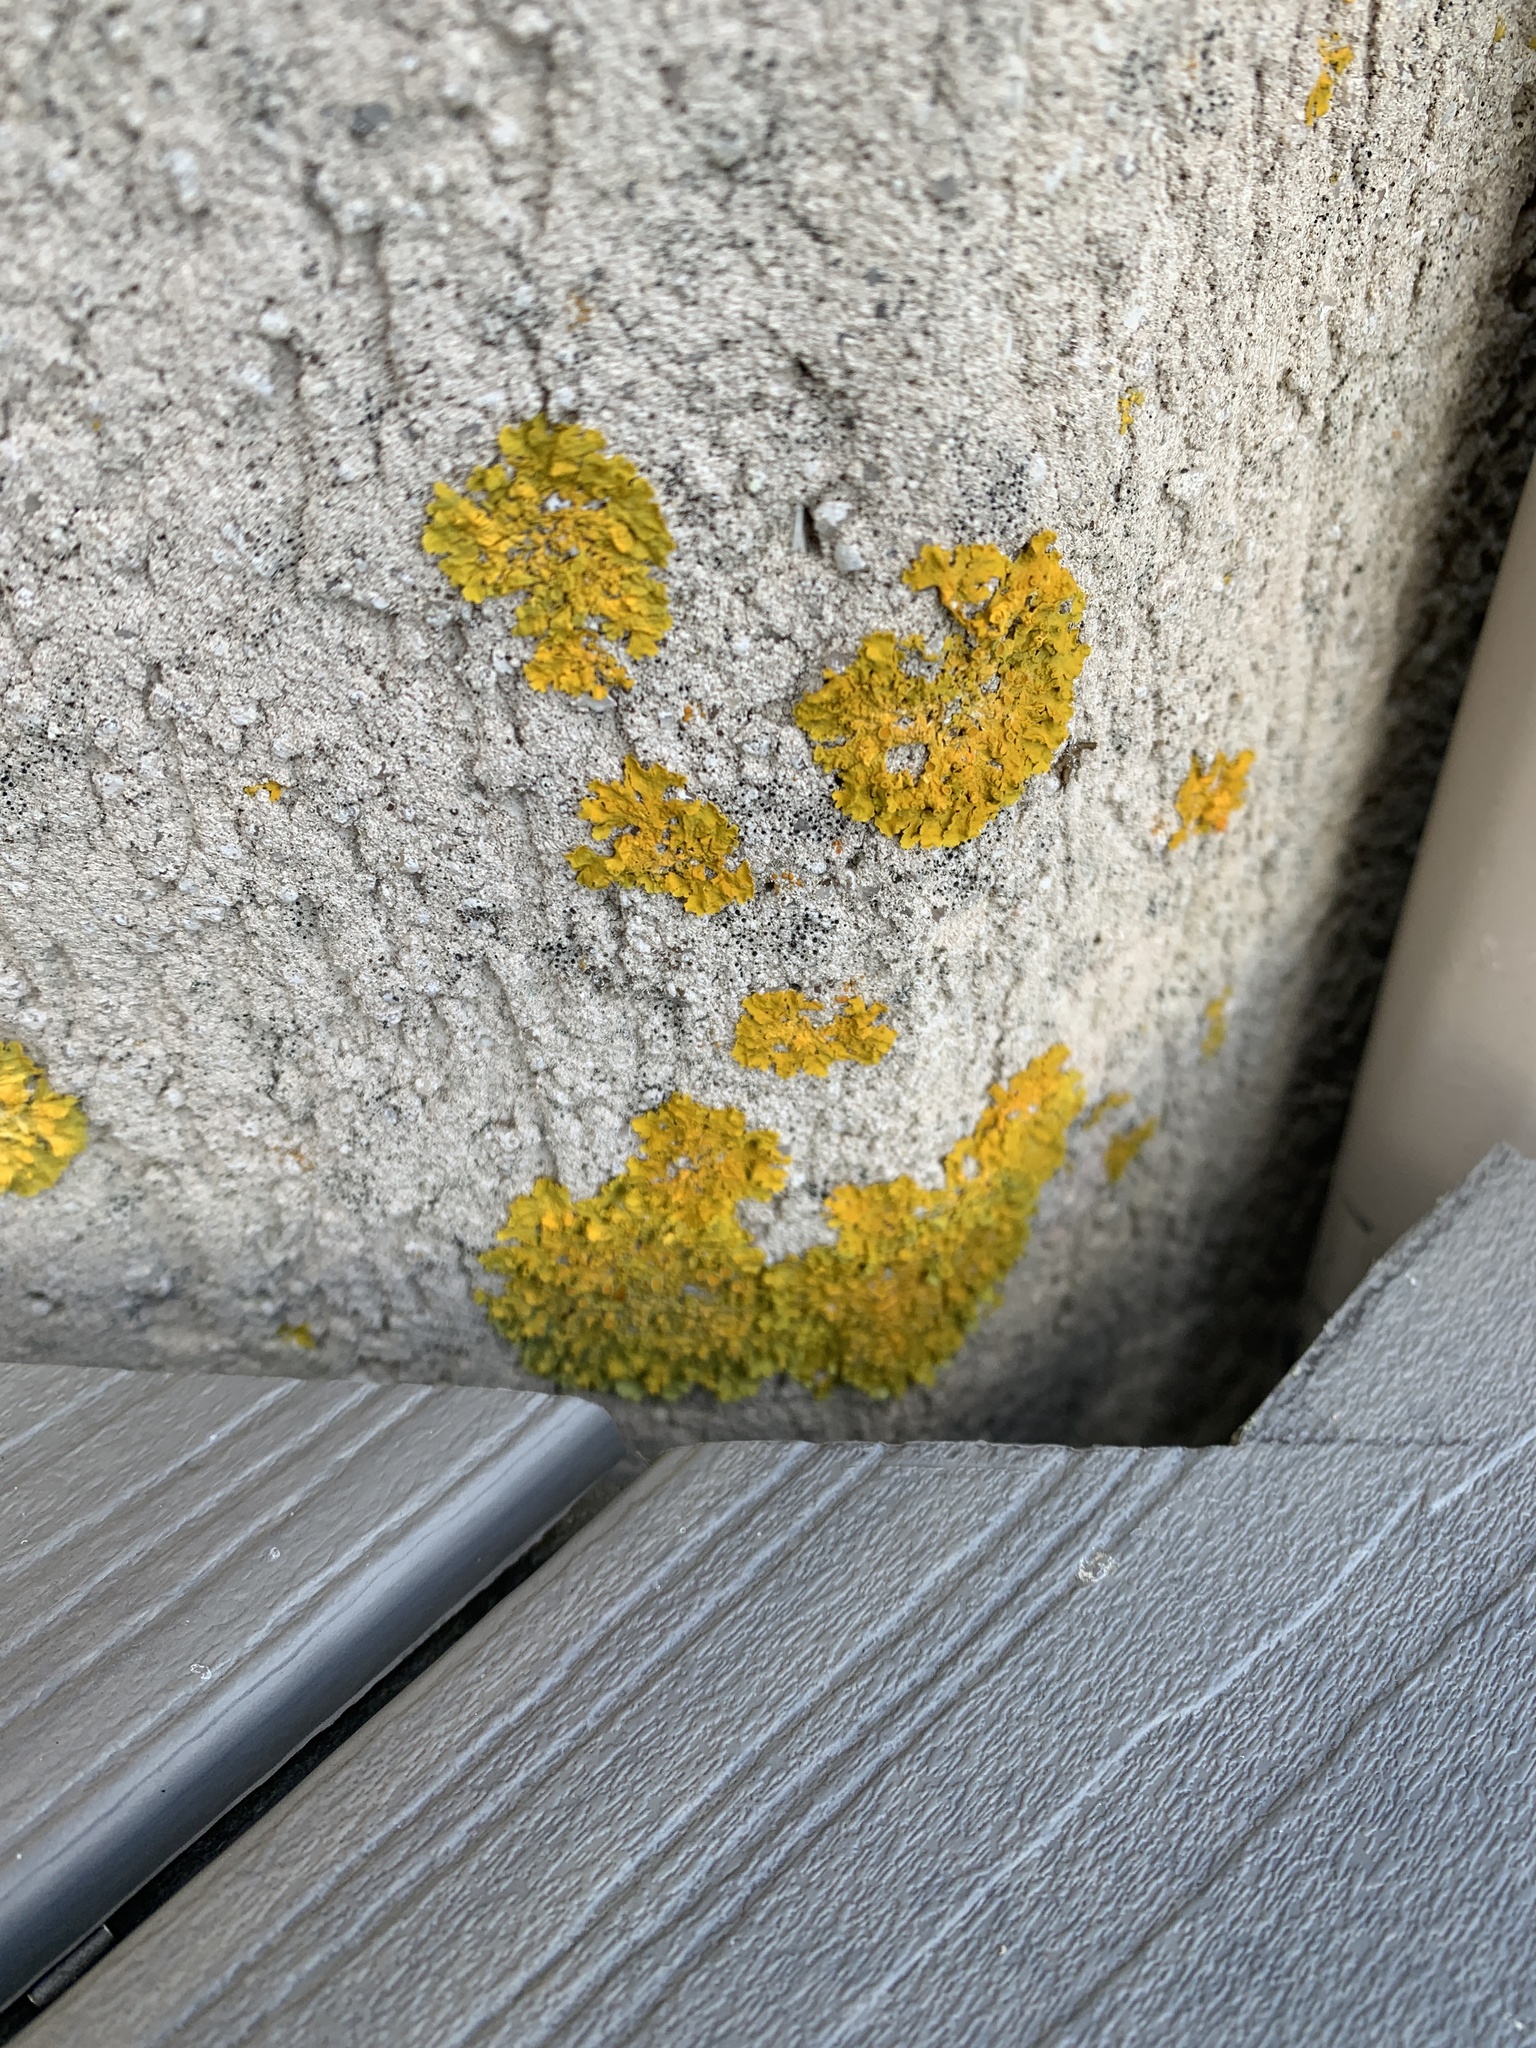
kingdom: Fungi
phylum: Ascomycota
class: Lecanoromycetes
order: Teloschistales
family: Teloschistaceae
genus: Xanthoria
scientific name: Xanthoria parietina
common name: Common orange lichen
